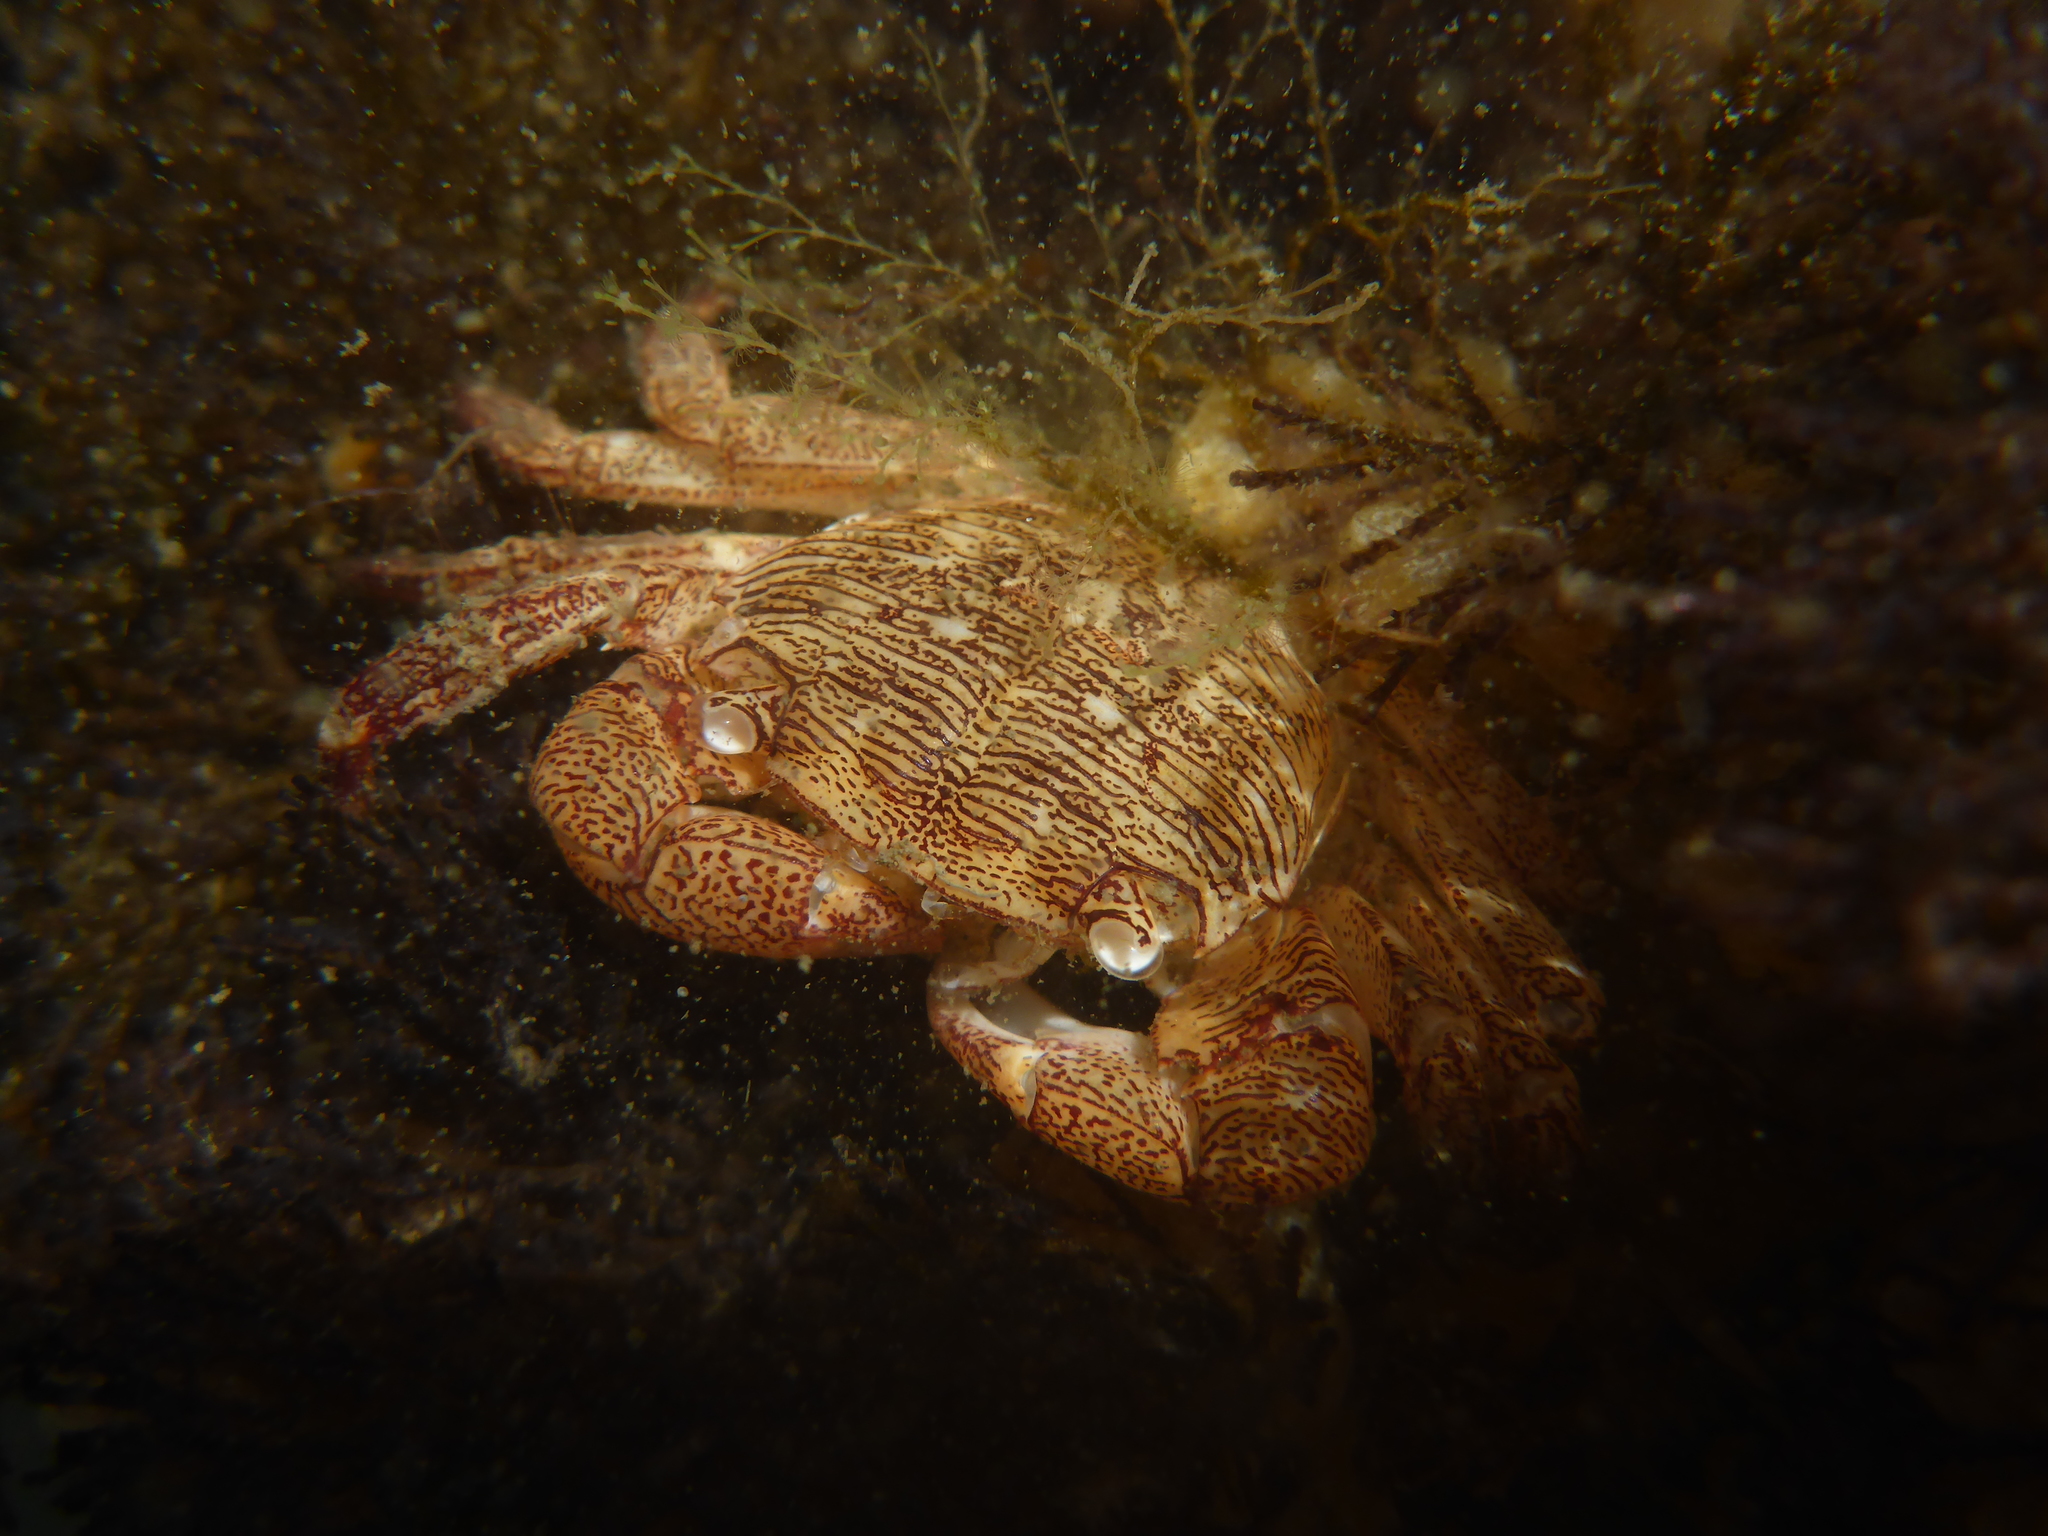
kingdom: Animalia
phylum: Arthropoda
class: Malacostraca
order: Decapoda
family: Grapsidae
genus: Pachygrapsus
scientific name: Pachygrapsus crassipes
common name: Striped shore crab
